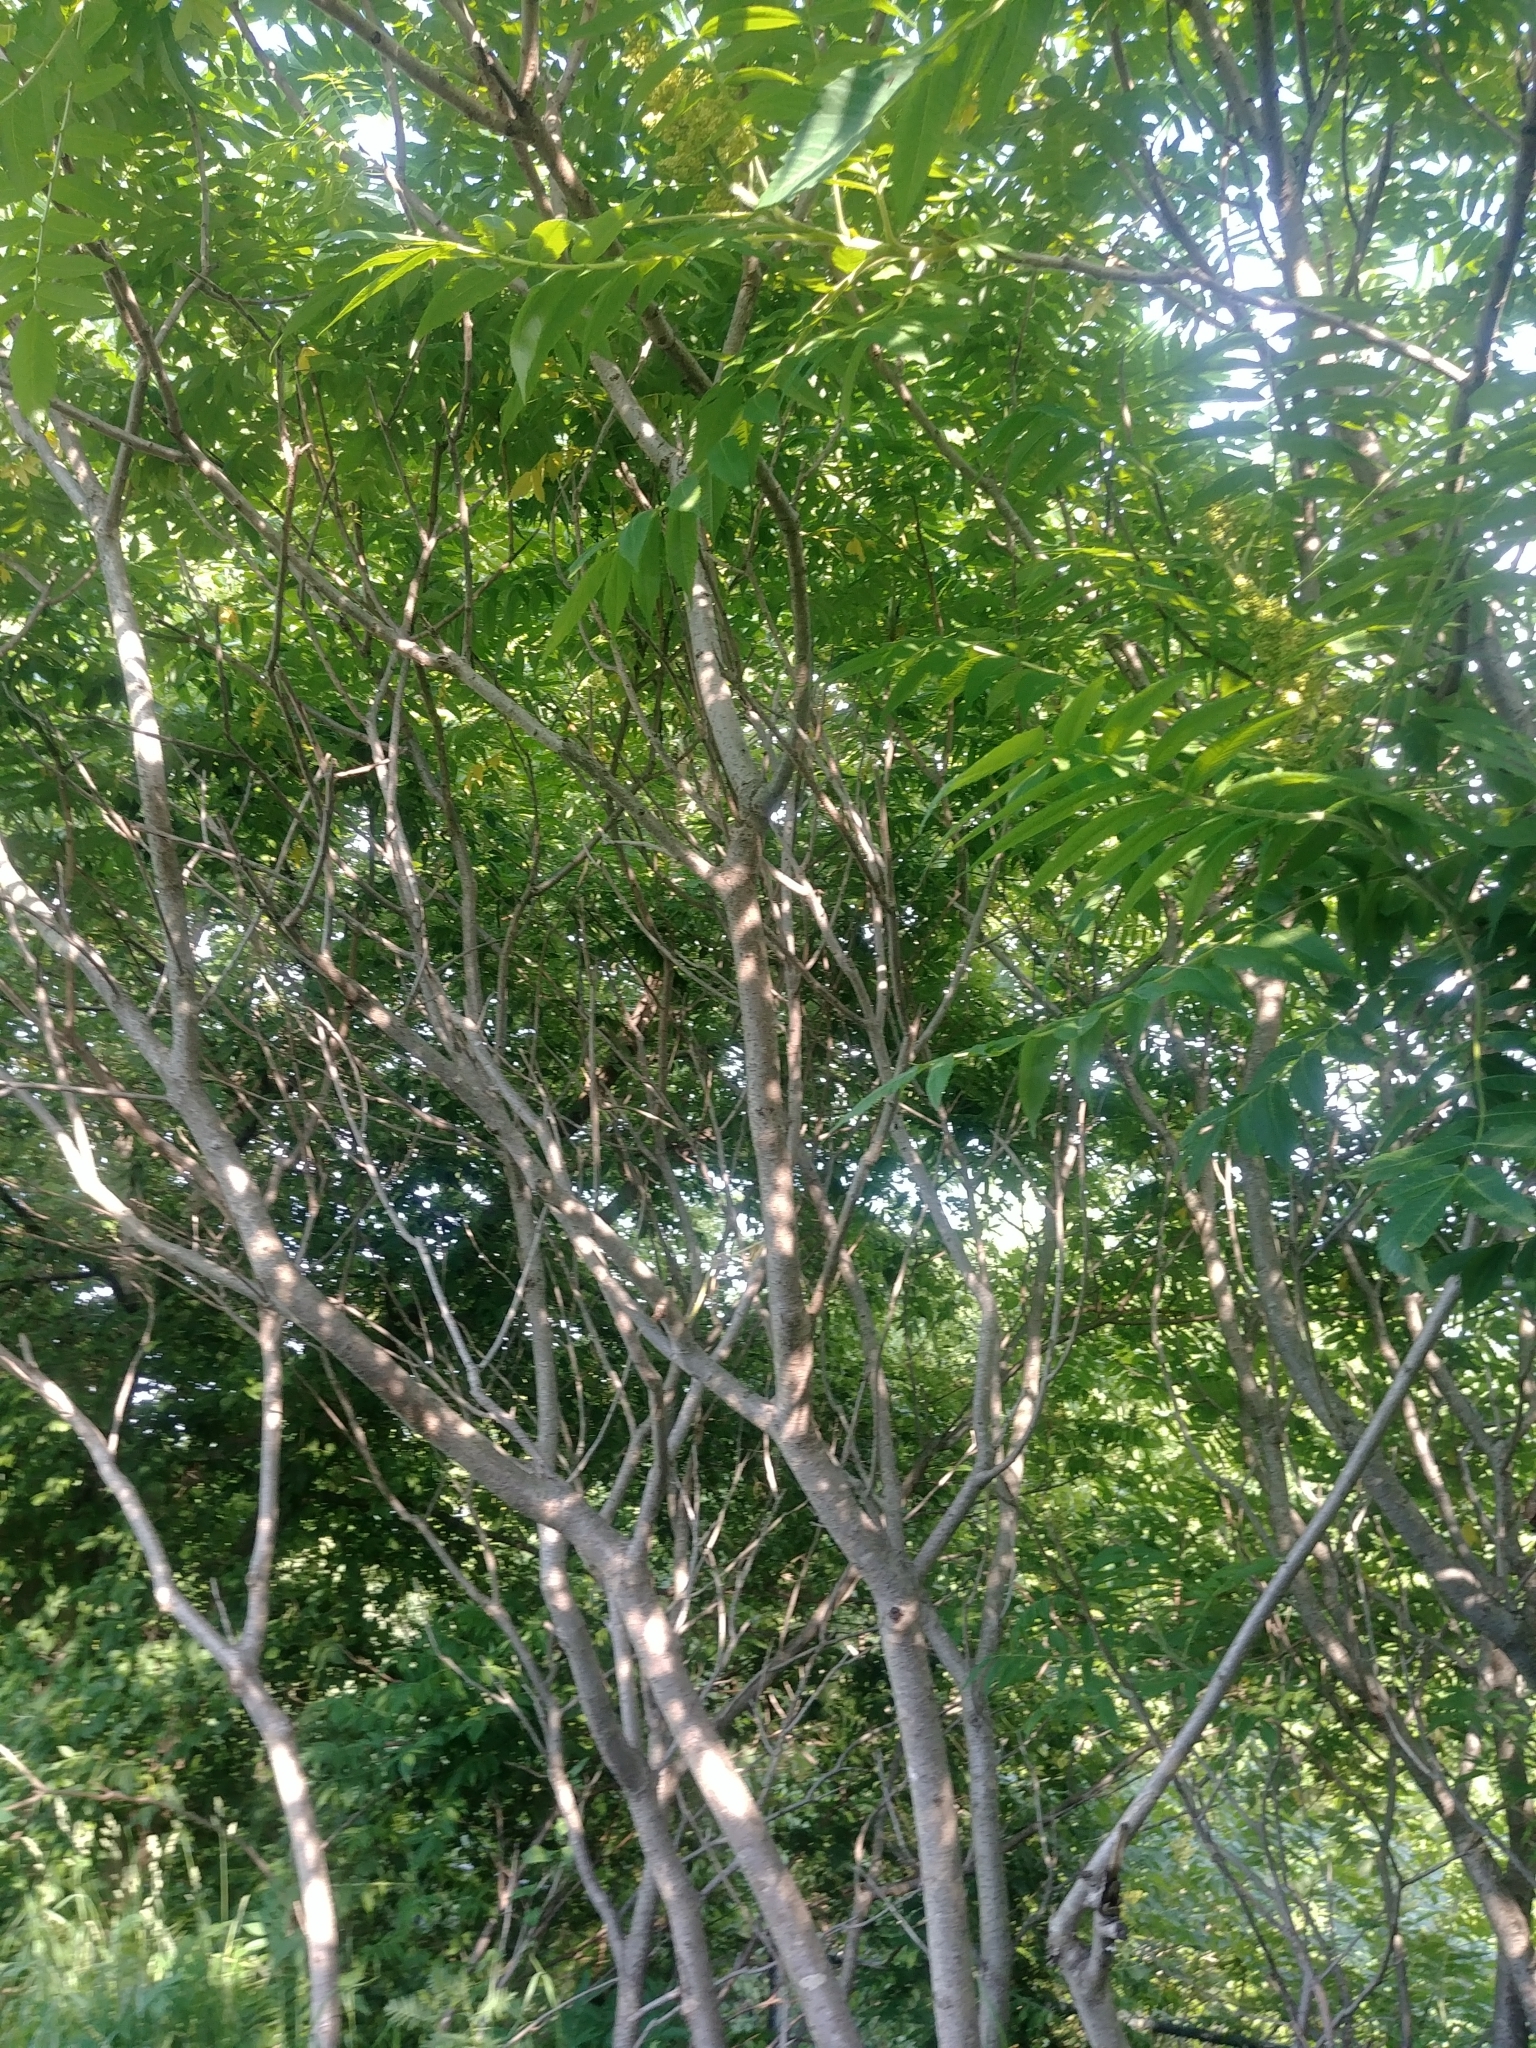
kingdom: Plantae
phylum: Tracheophyta
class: Magnoliopsida
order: Sapindales
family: Anacardiaceae
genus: Rhus
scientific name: Rhus typhina
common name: Staghorn sumac
